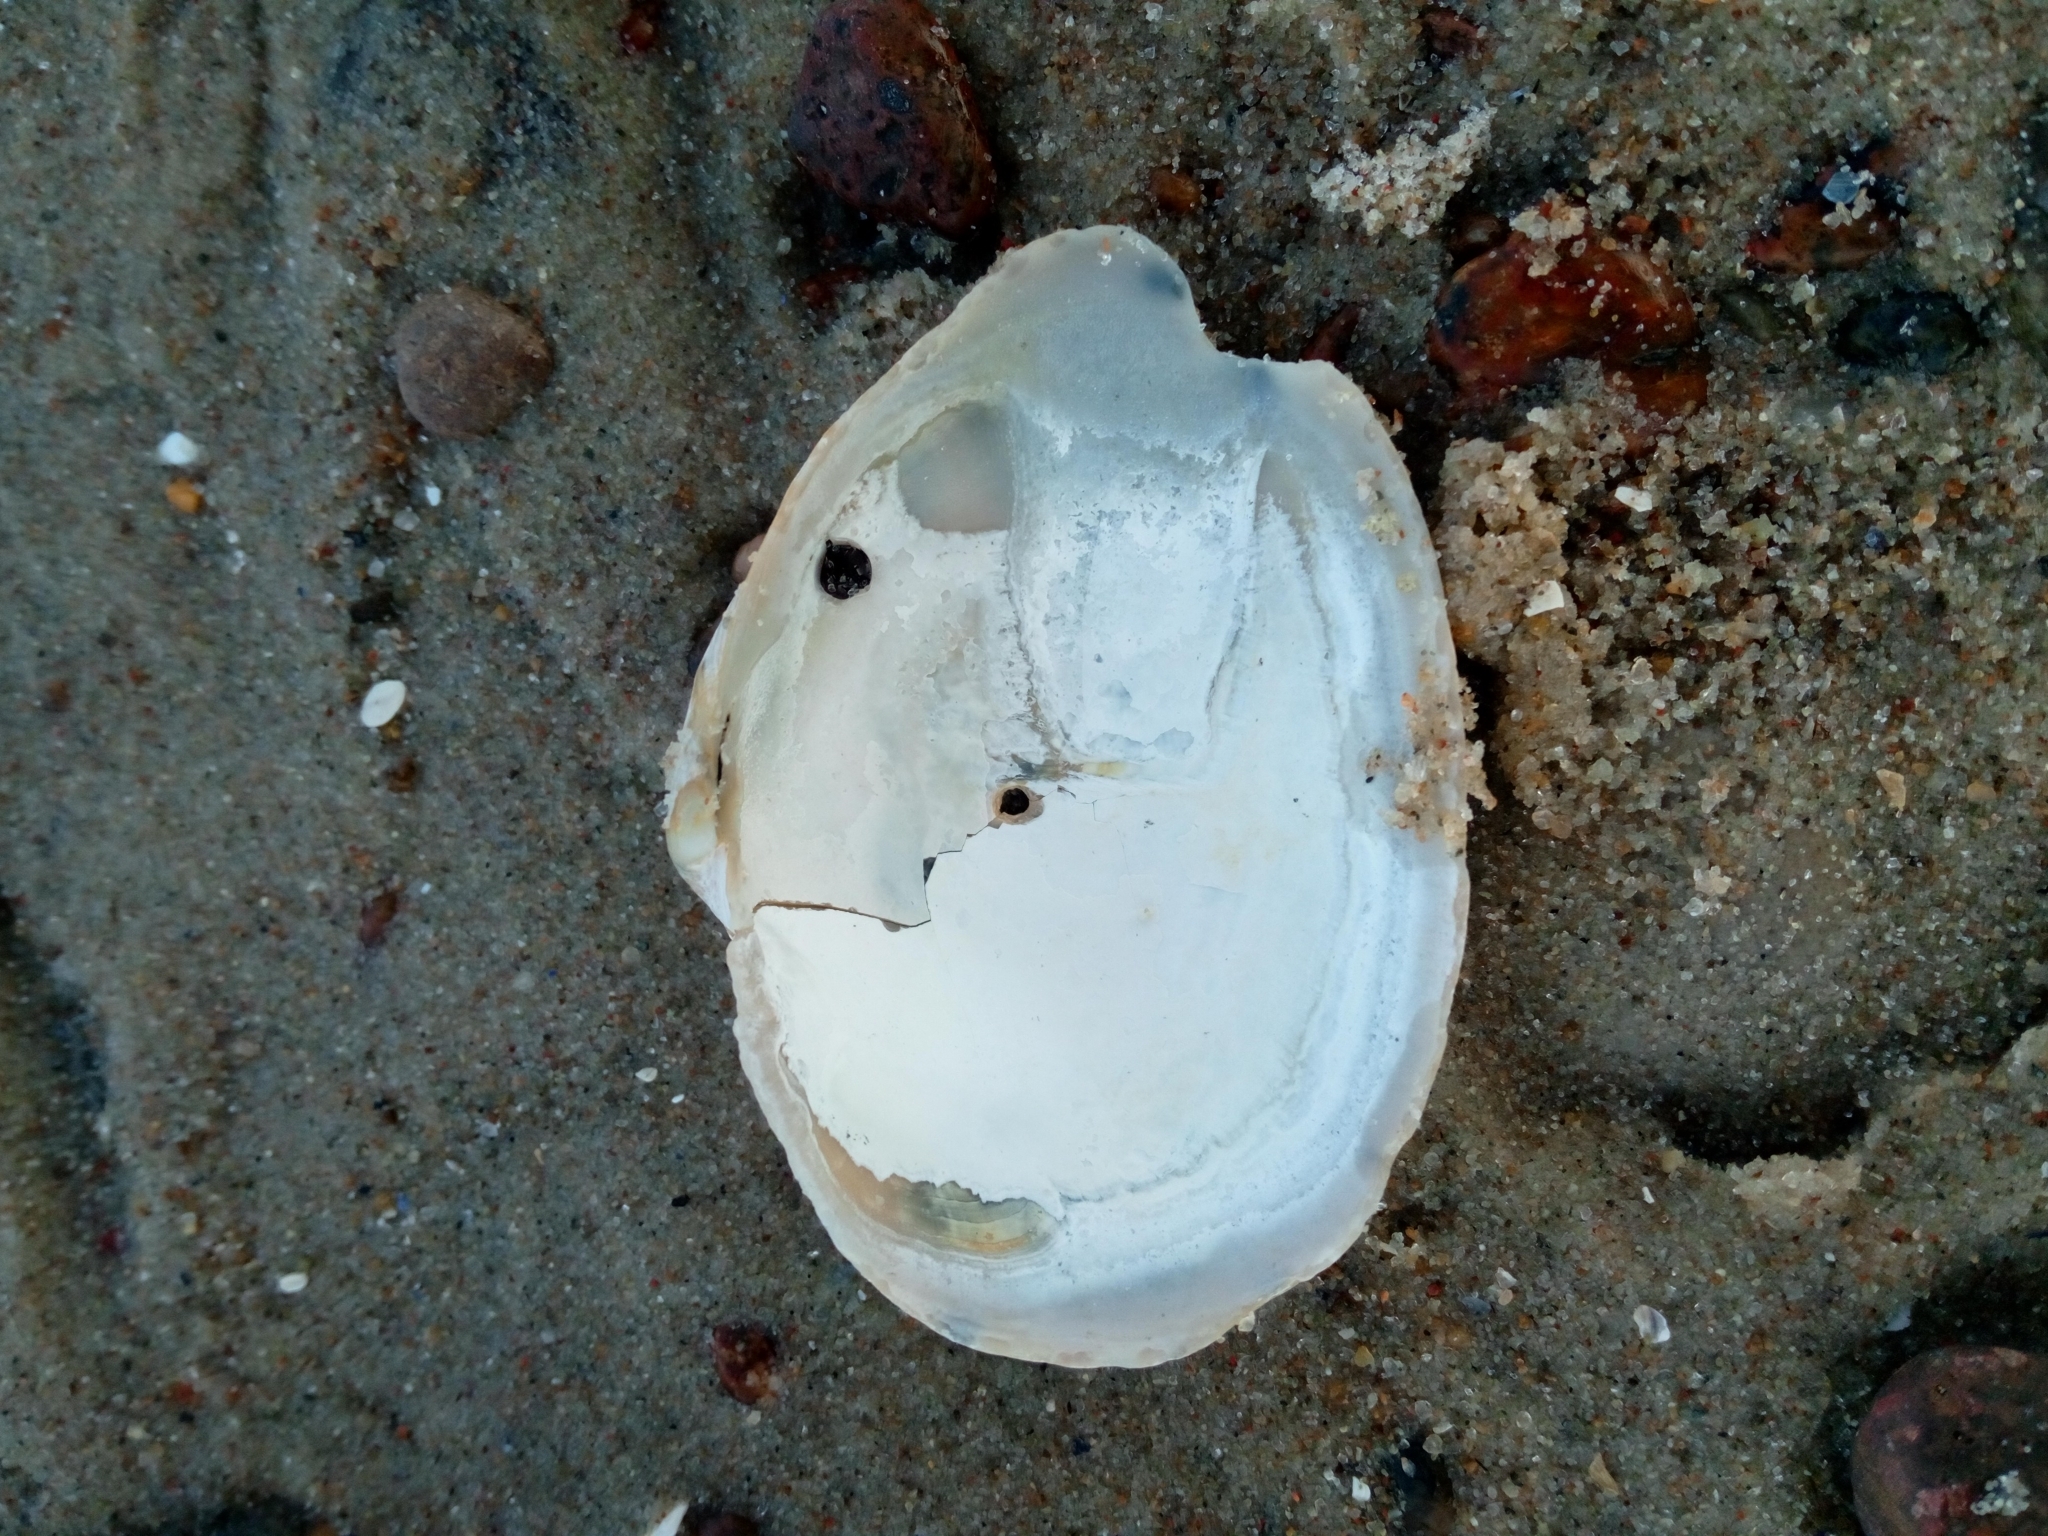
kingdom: Animalia
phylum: Mollusca
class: Bivalvia
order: Myida
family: Myidae
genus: Mya
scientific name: Mya arenaria
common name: Soft-shelled clam
